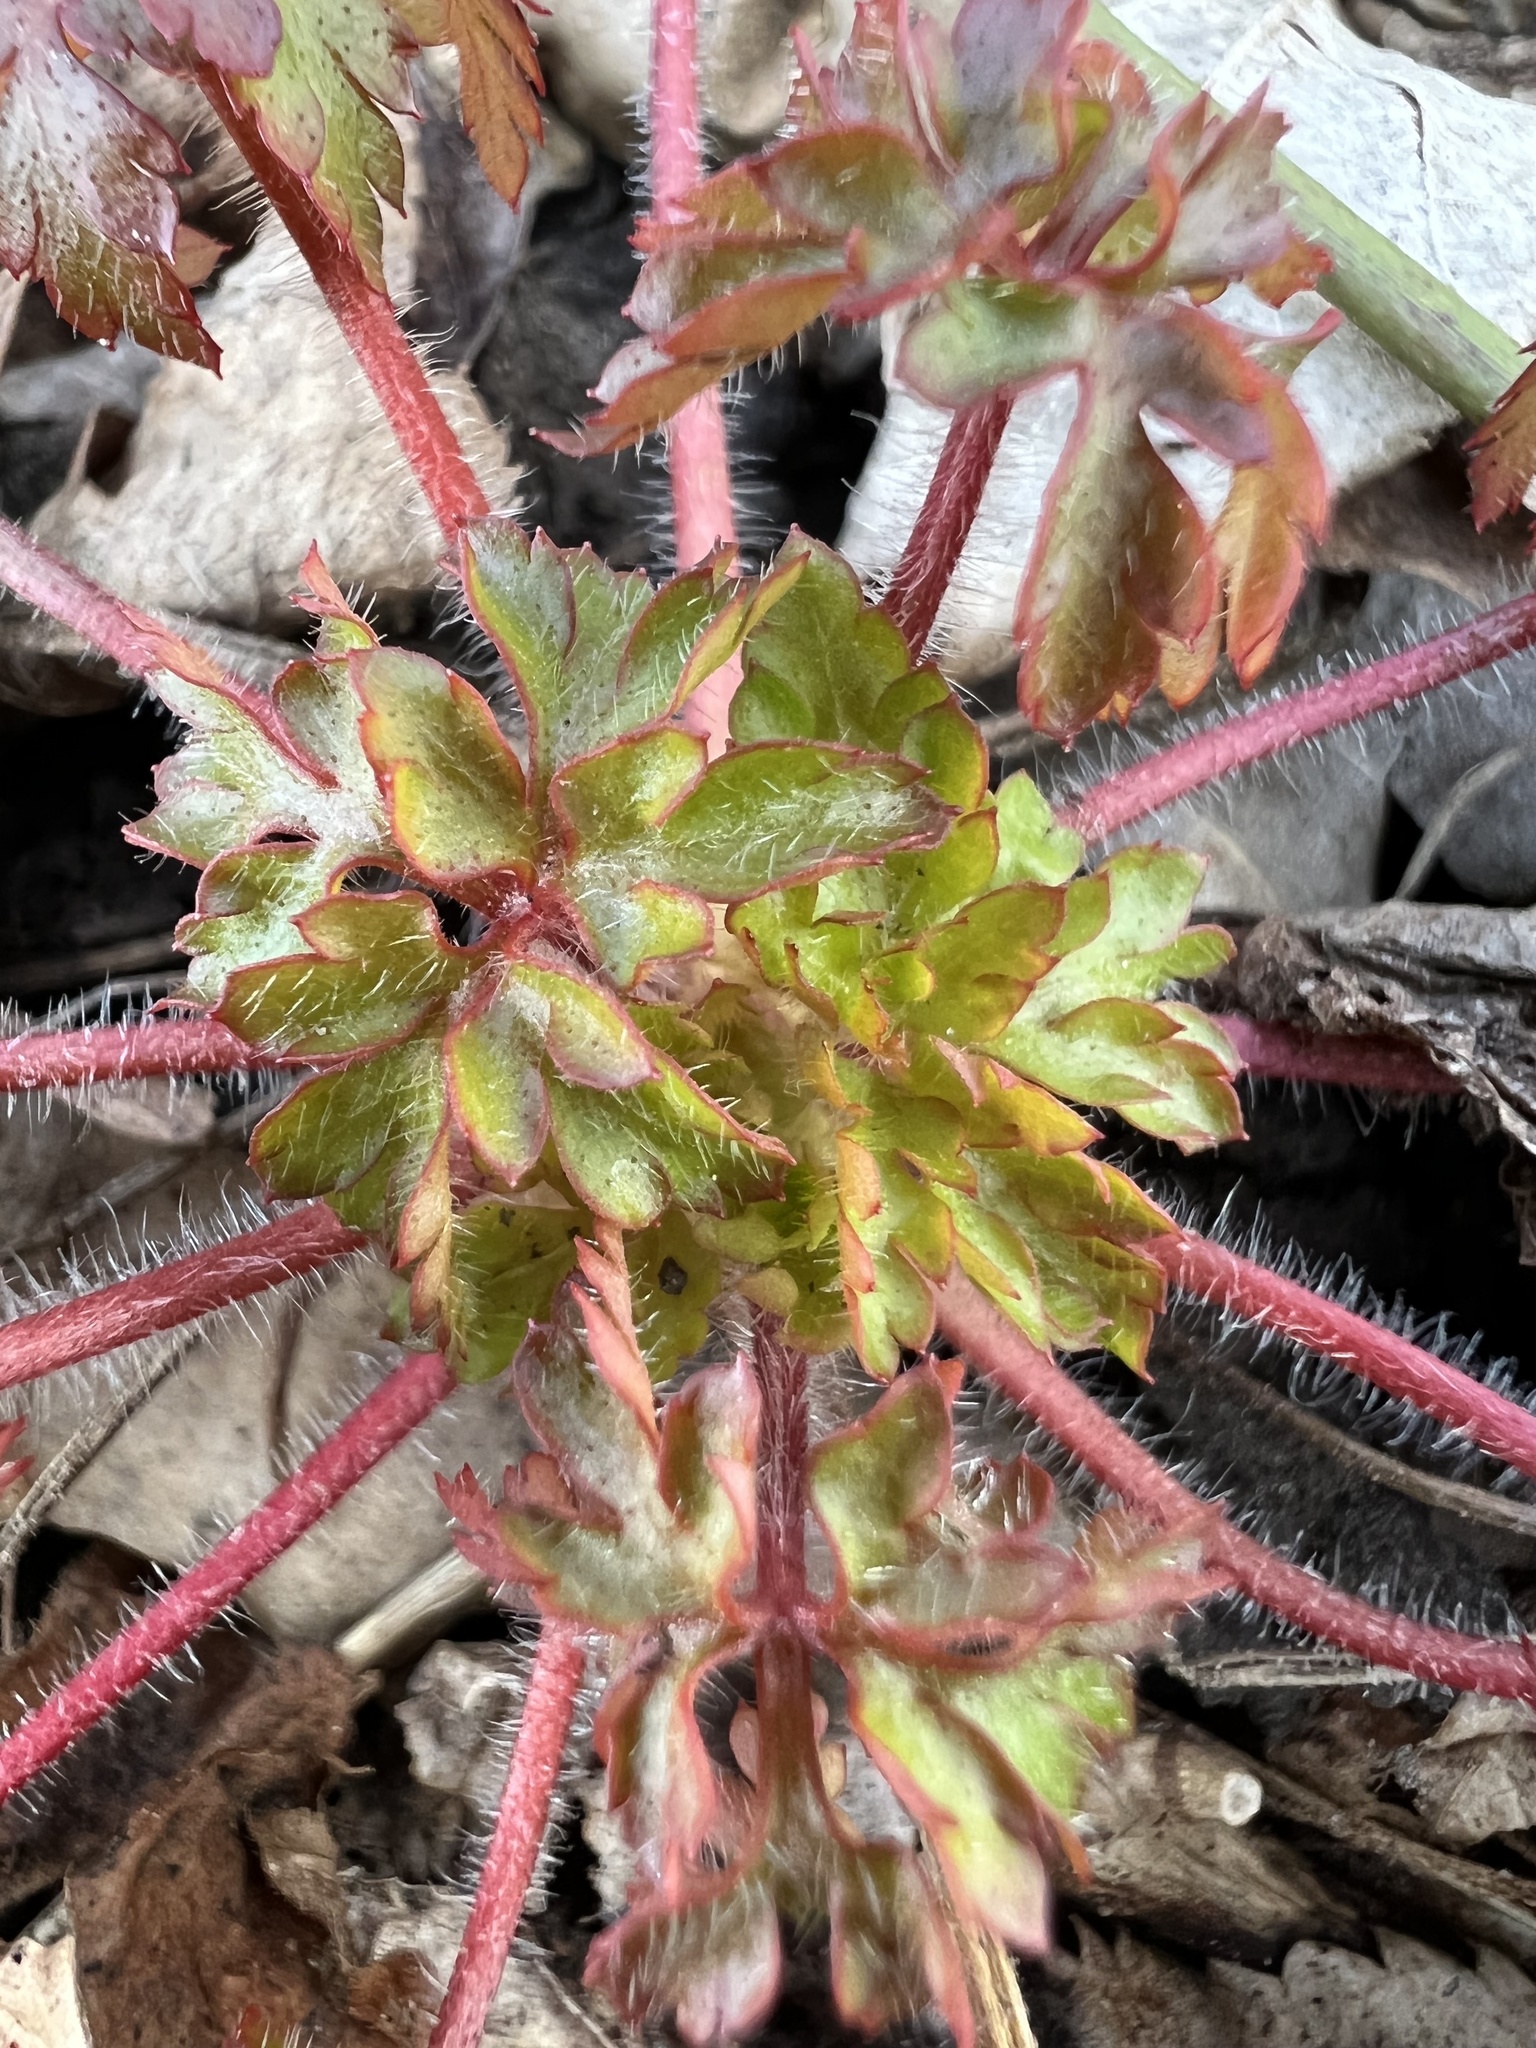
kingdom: Plantae
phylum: Tracheophyta
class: Magnoliopsida
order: Geraniales
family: Geraniaceae
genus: Geranium
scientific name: Geranium robertianum
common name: Herb-robert
